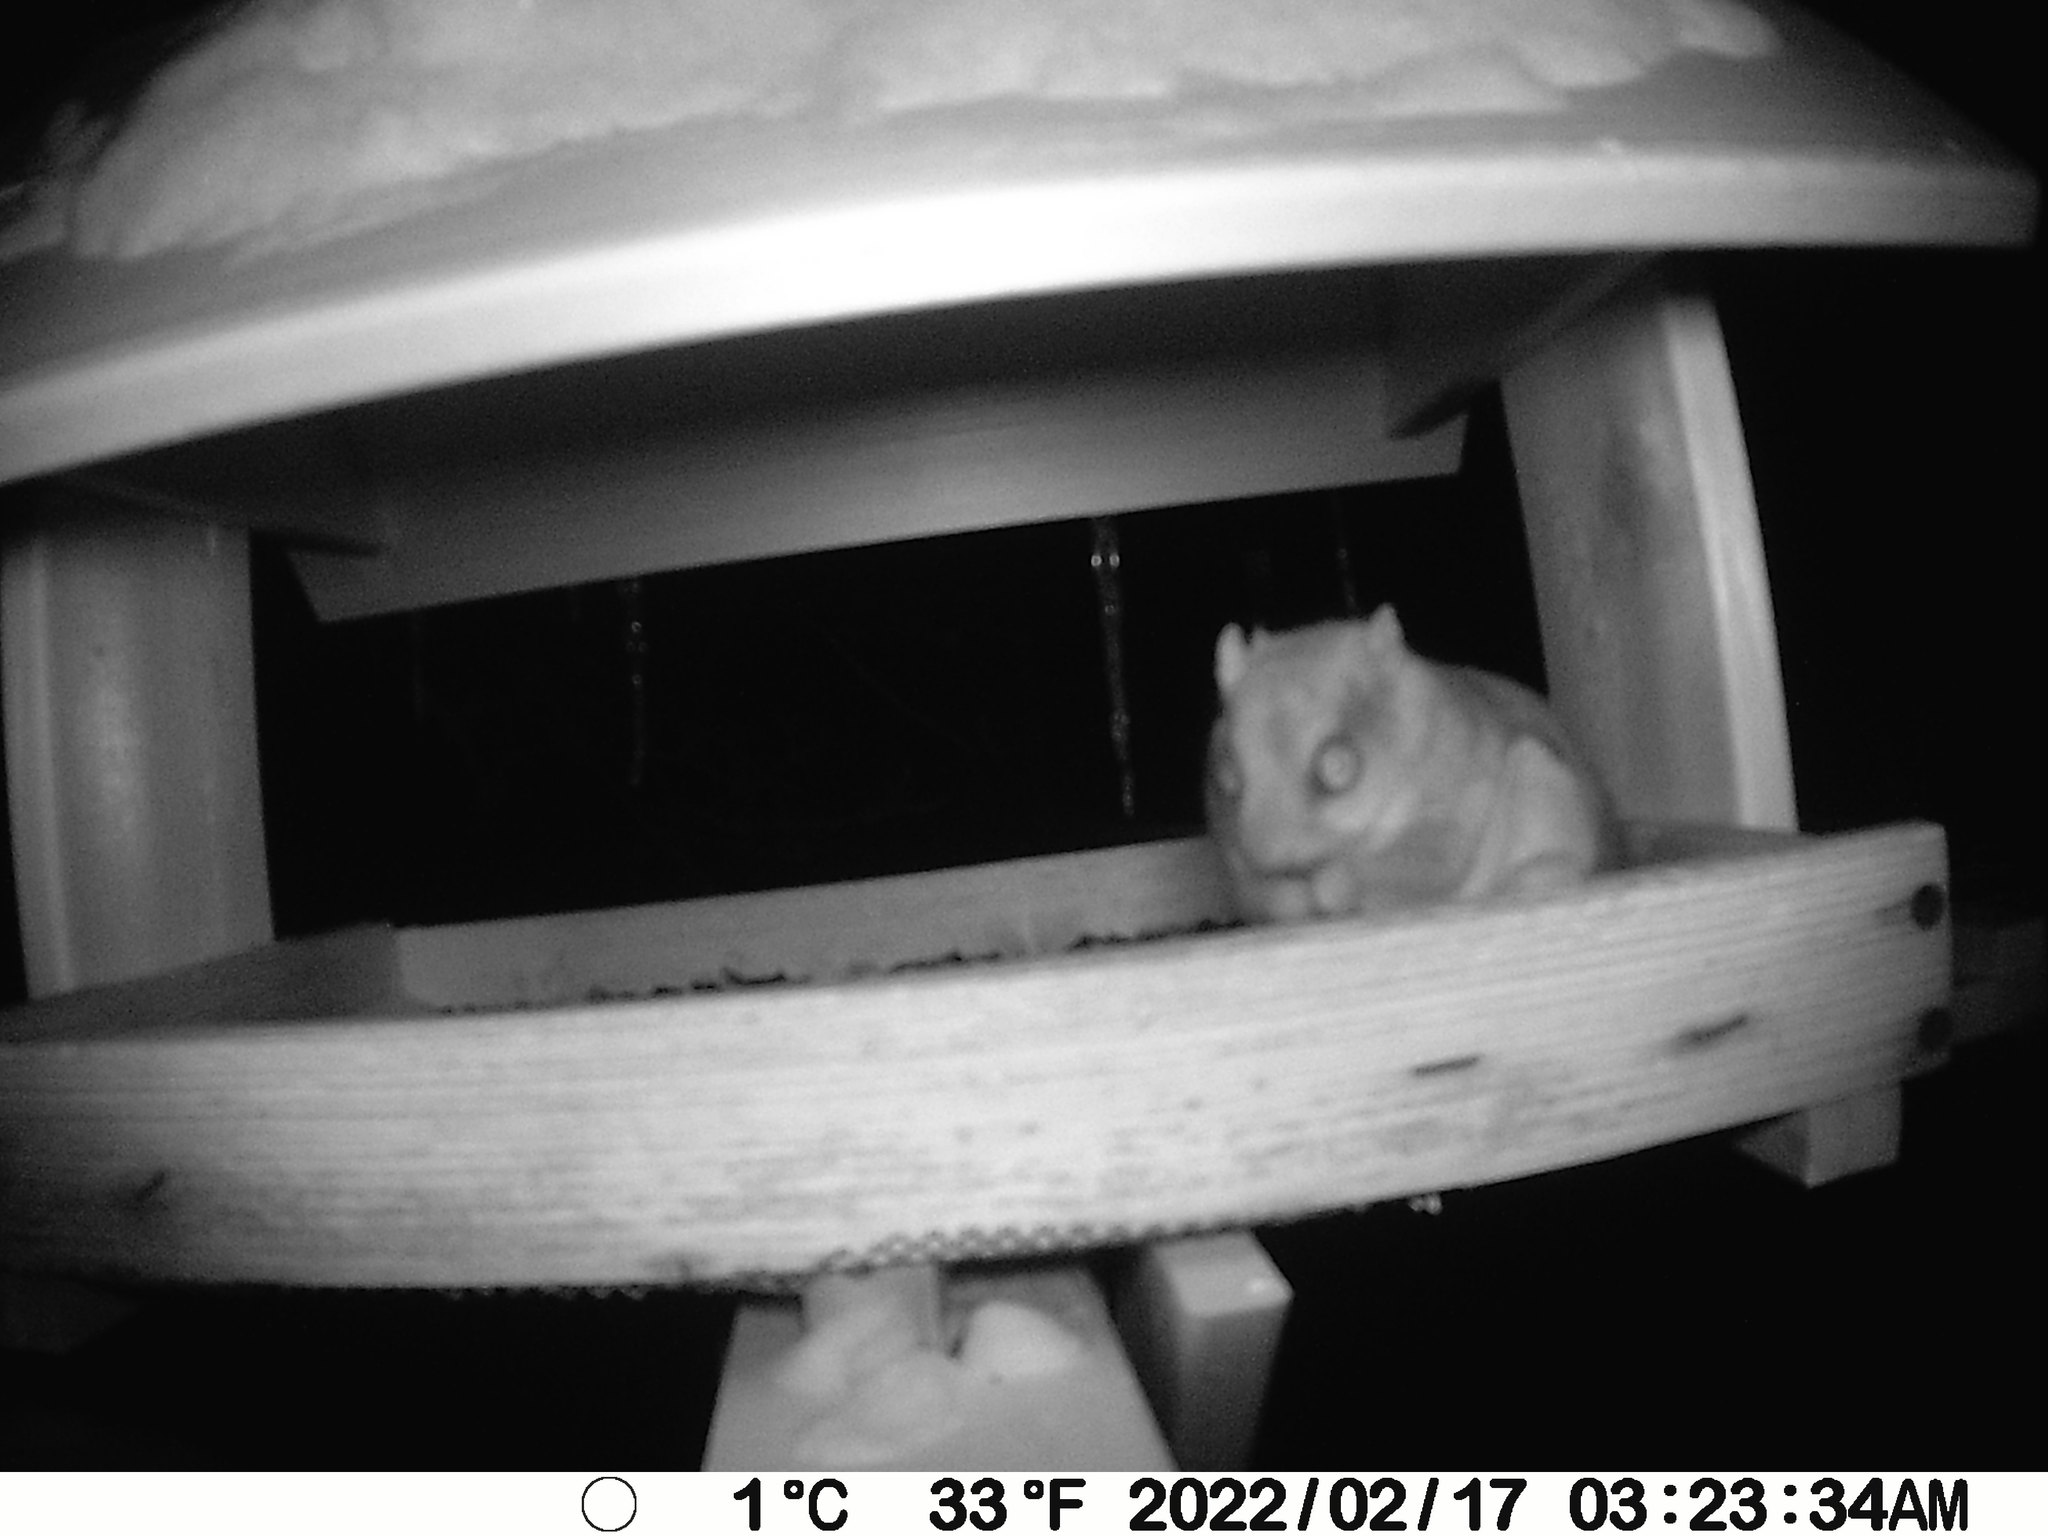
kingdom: Animalia
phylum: Chordata
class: Mammalia
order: Rodentia
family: Sciuridae
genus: Glaucomys
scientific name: Glaucomys sabrinus
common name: Northern flying squirrel
